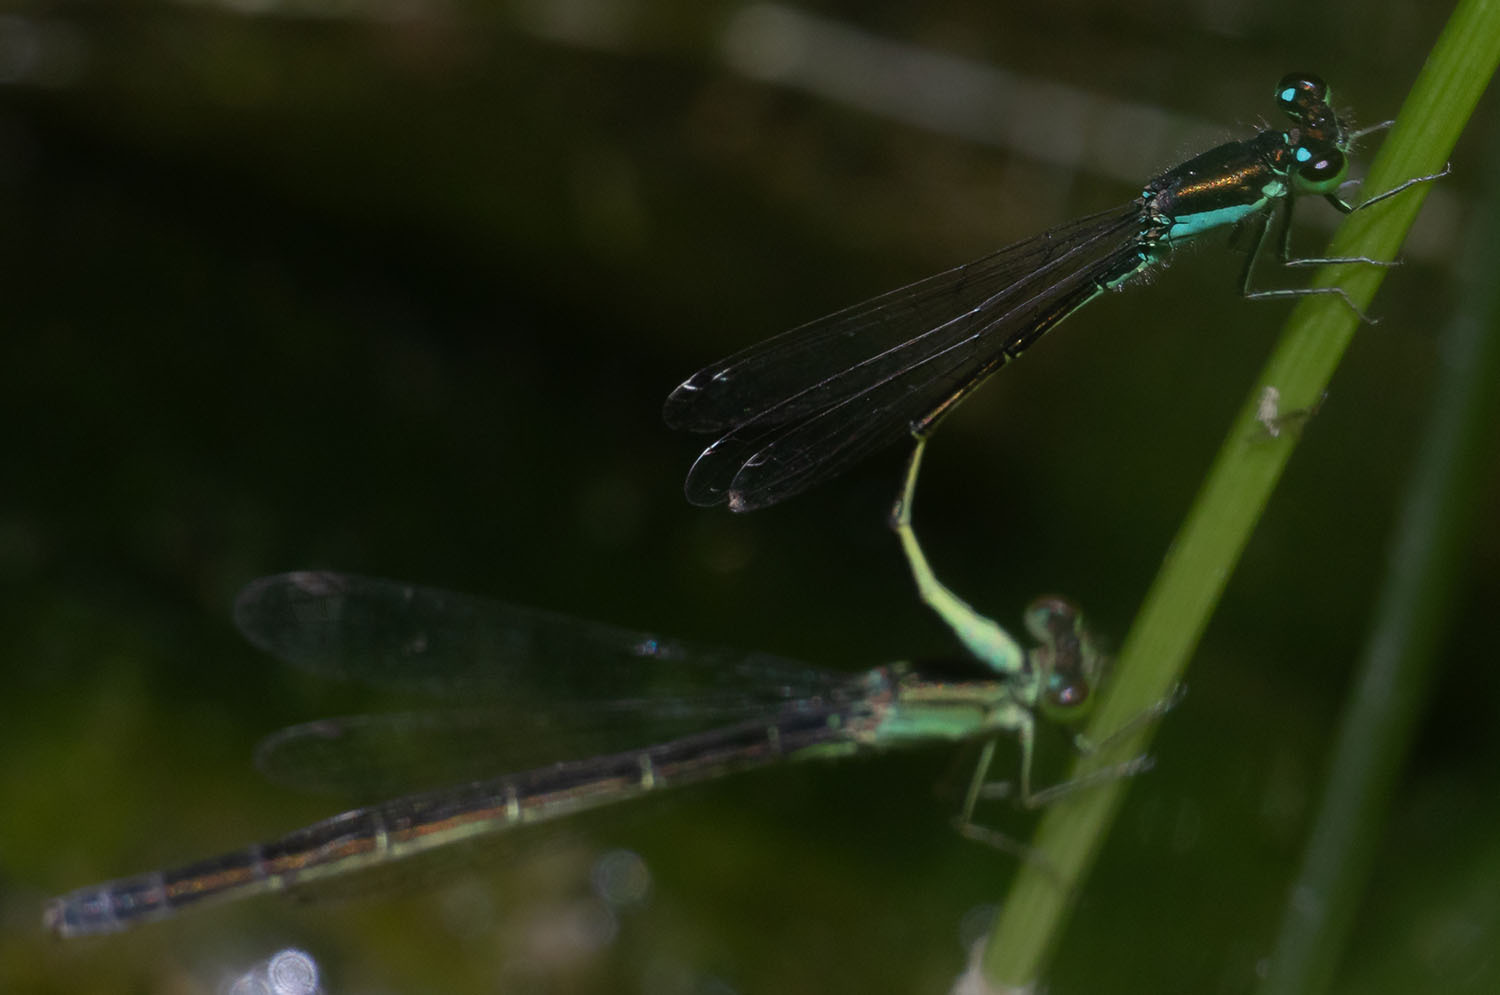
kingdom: Animalia
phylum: Arthropoda
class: Insecta
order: Odonata
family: Coenagrionidae
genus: Ischnura
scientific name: Ischnura denticollis
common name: Black-fronted forktail
